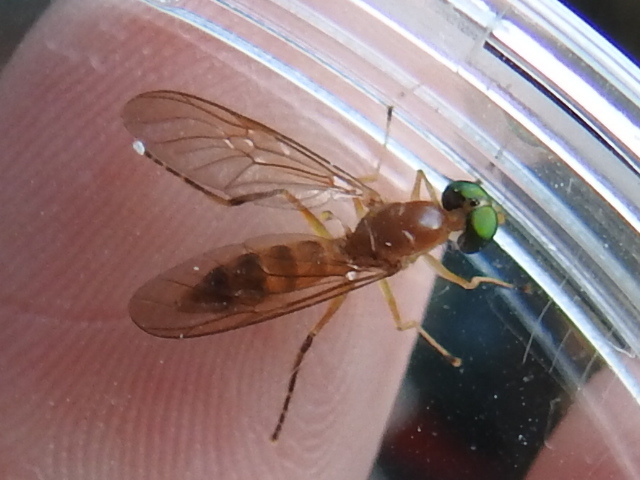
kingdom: Animalia
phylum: Arthropoda
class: Insecta
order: Diptera
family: Stratiomyidae
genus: Ptecticus
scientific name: Ptecticus trivittatus
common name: Compost fly
